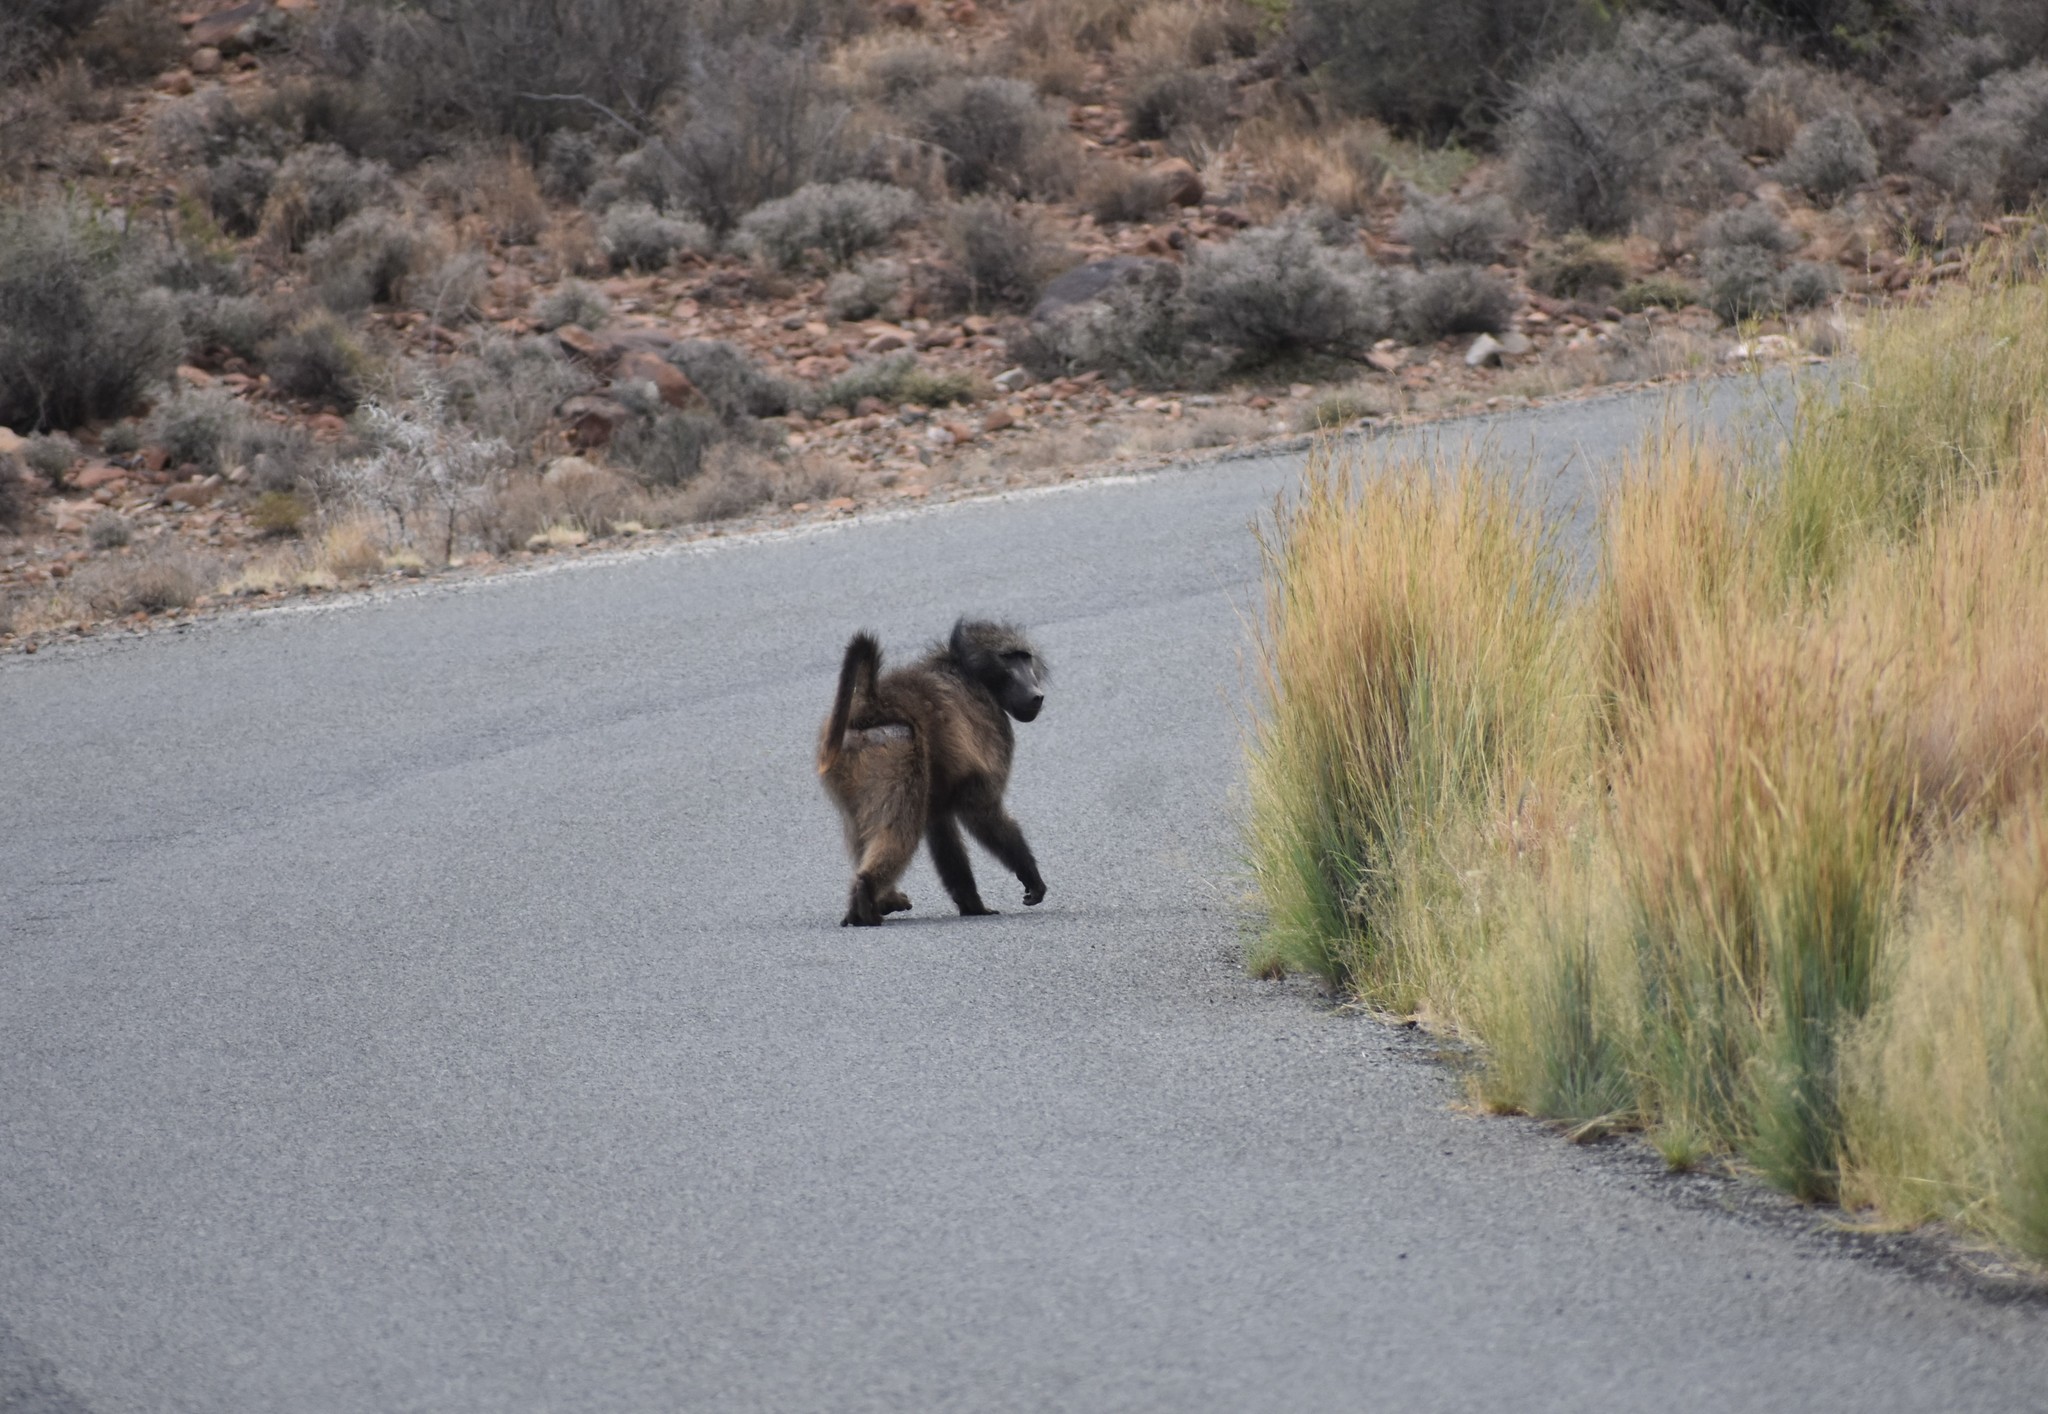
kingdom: Animalia
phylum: Chordata
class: Mammalia
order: Primates
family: Cercopithecidae
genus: Papio
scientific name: Papio ursinus
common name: Chacma baboon
